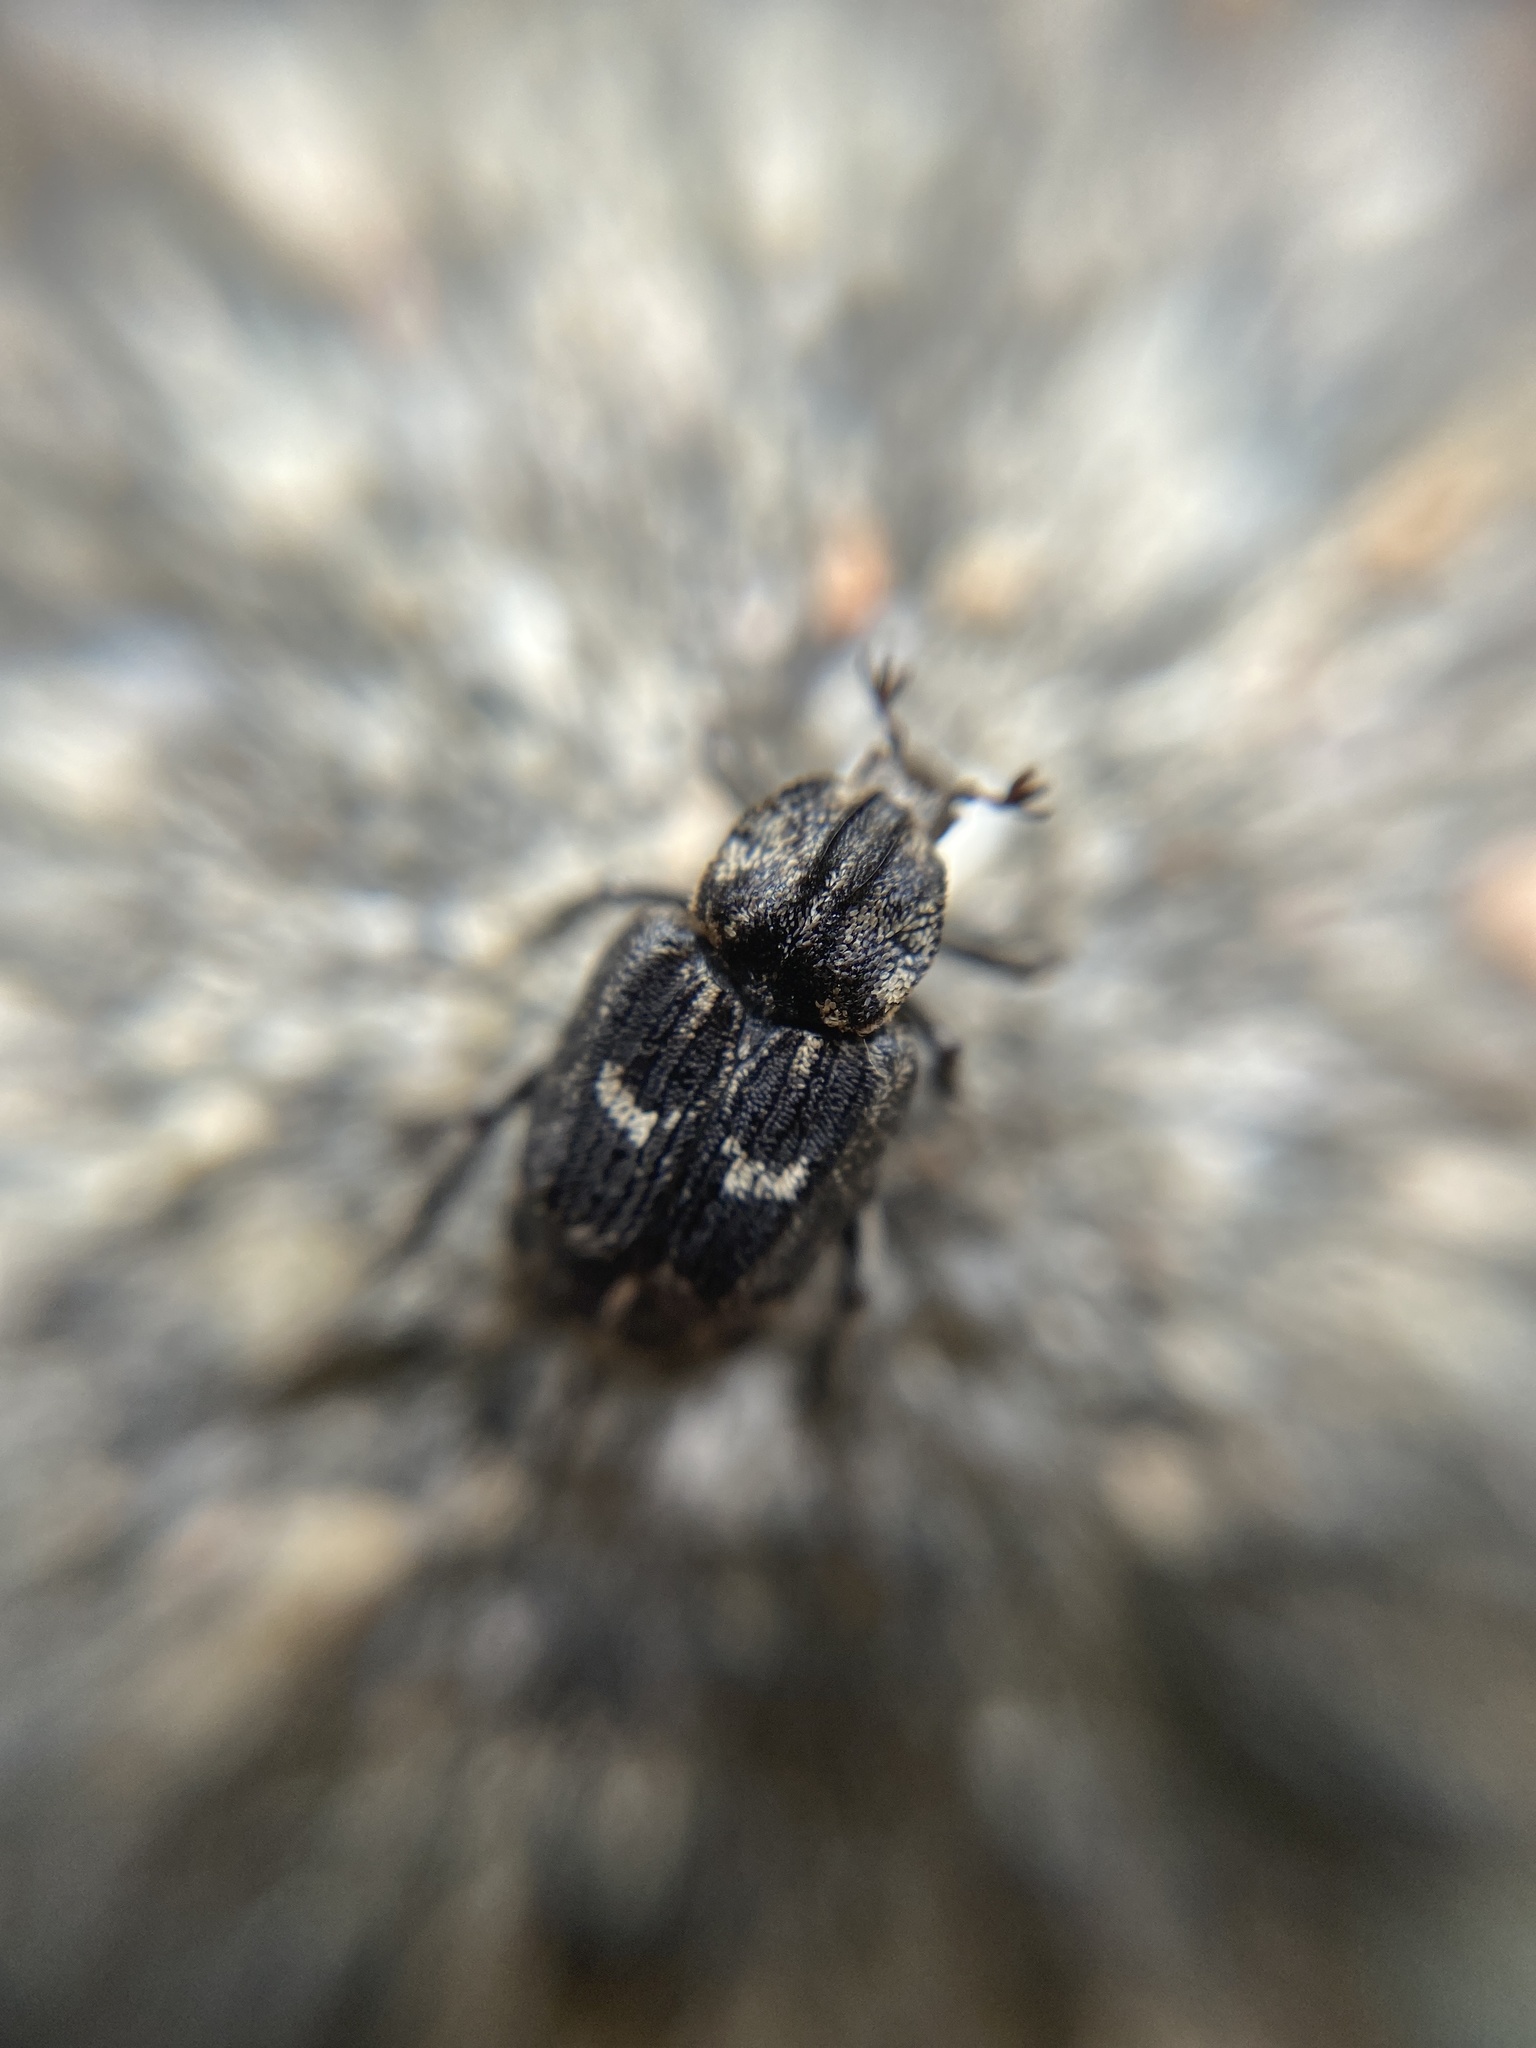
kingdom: Animalia
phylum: Arthropoda
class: Insecta
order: Coleoptera
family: Scarabaeidae
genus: Valgus
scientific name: Valgus hemipterus
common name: Bug flower chafer
